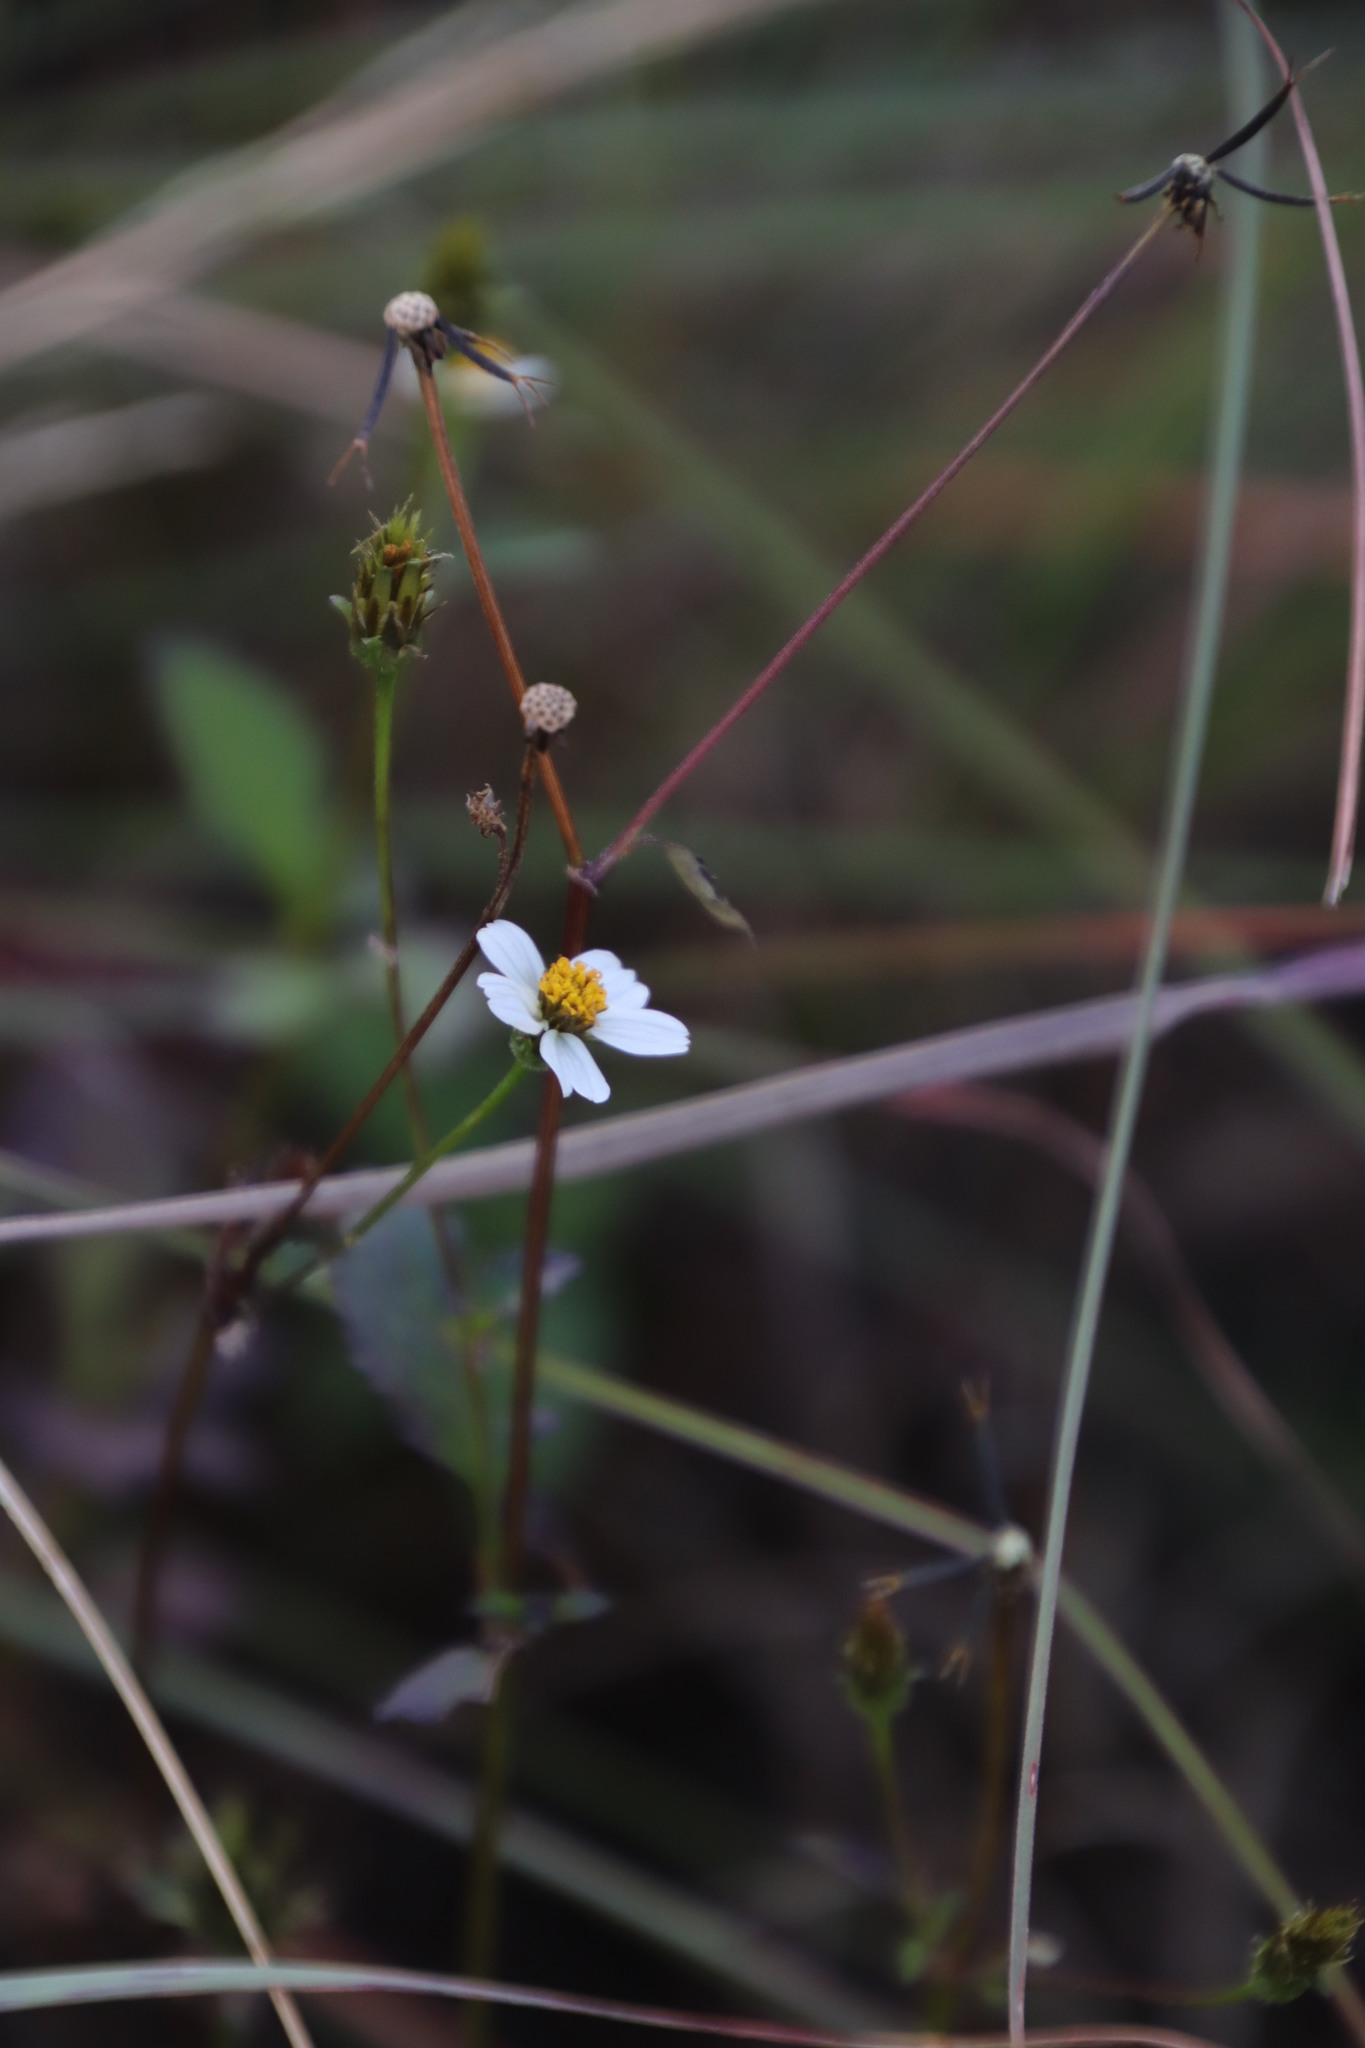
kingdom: Plantae
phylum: Tracheophyta
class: Magnoliopsida
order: Asterales
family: Asteraceae
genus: Bidens
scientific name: Bidens pilosa
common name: Black-jack
